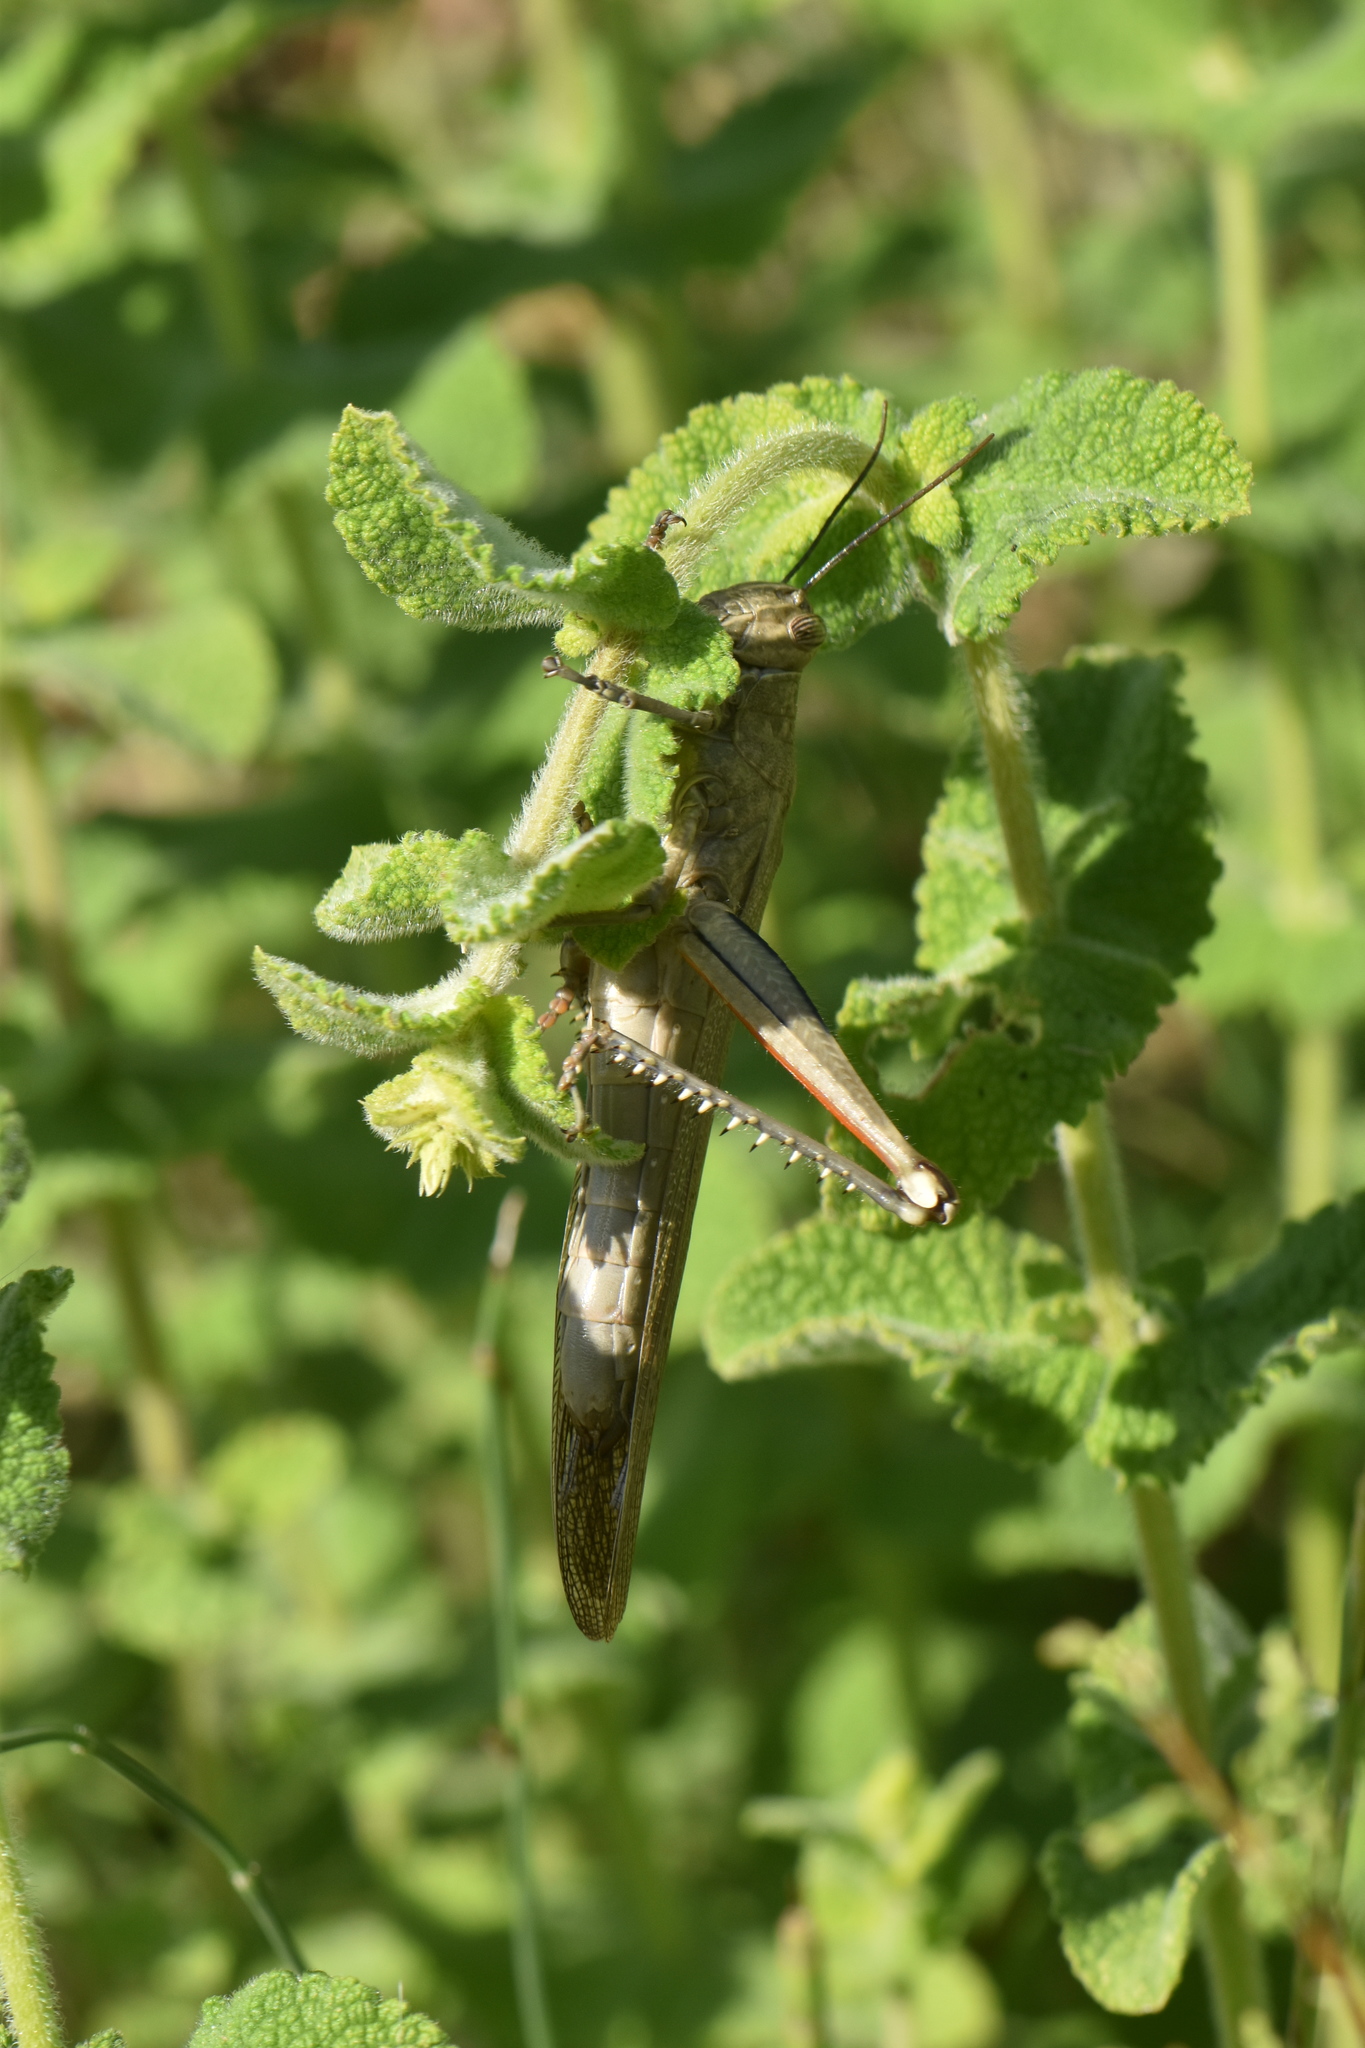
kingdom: Animalia
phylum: Arthropoda
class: Insecta
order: Orthoptera
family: Acrididae
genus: Anacridium
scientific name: Anacridium aegyptium
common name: Egyptian grasshopper
